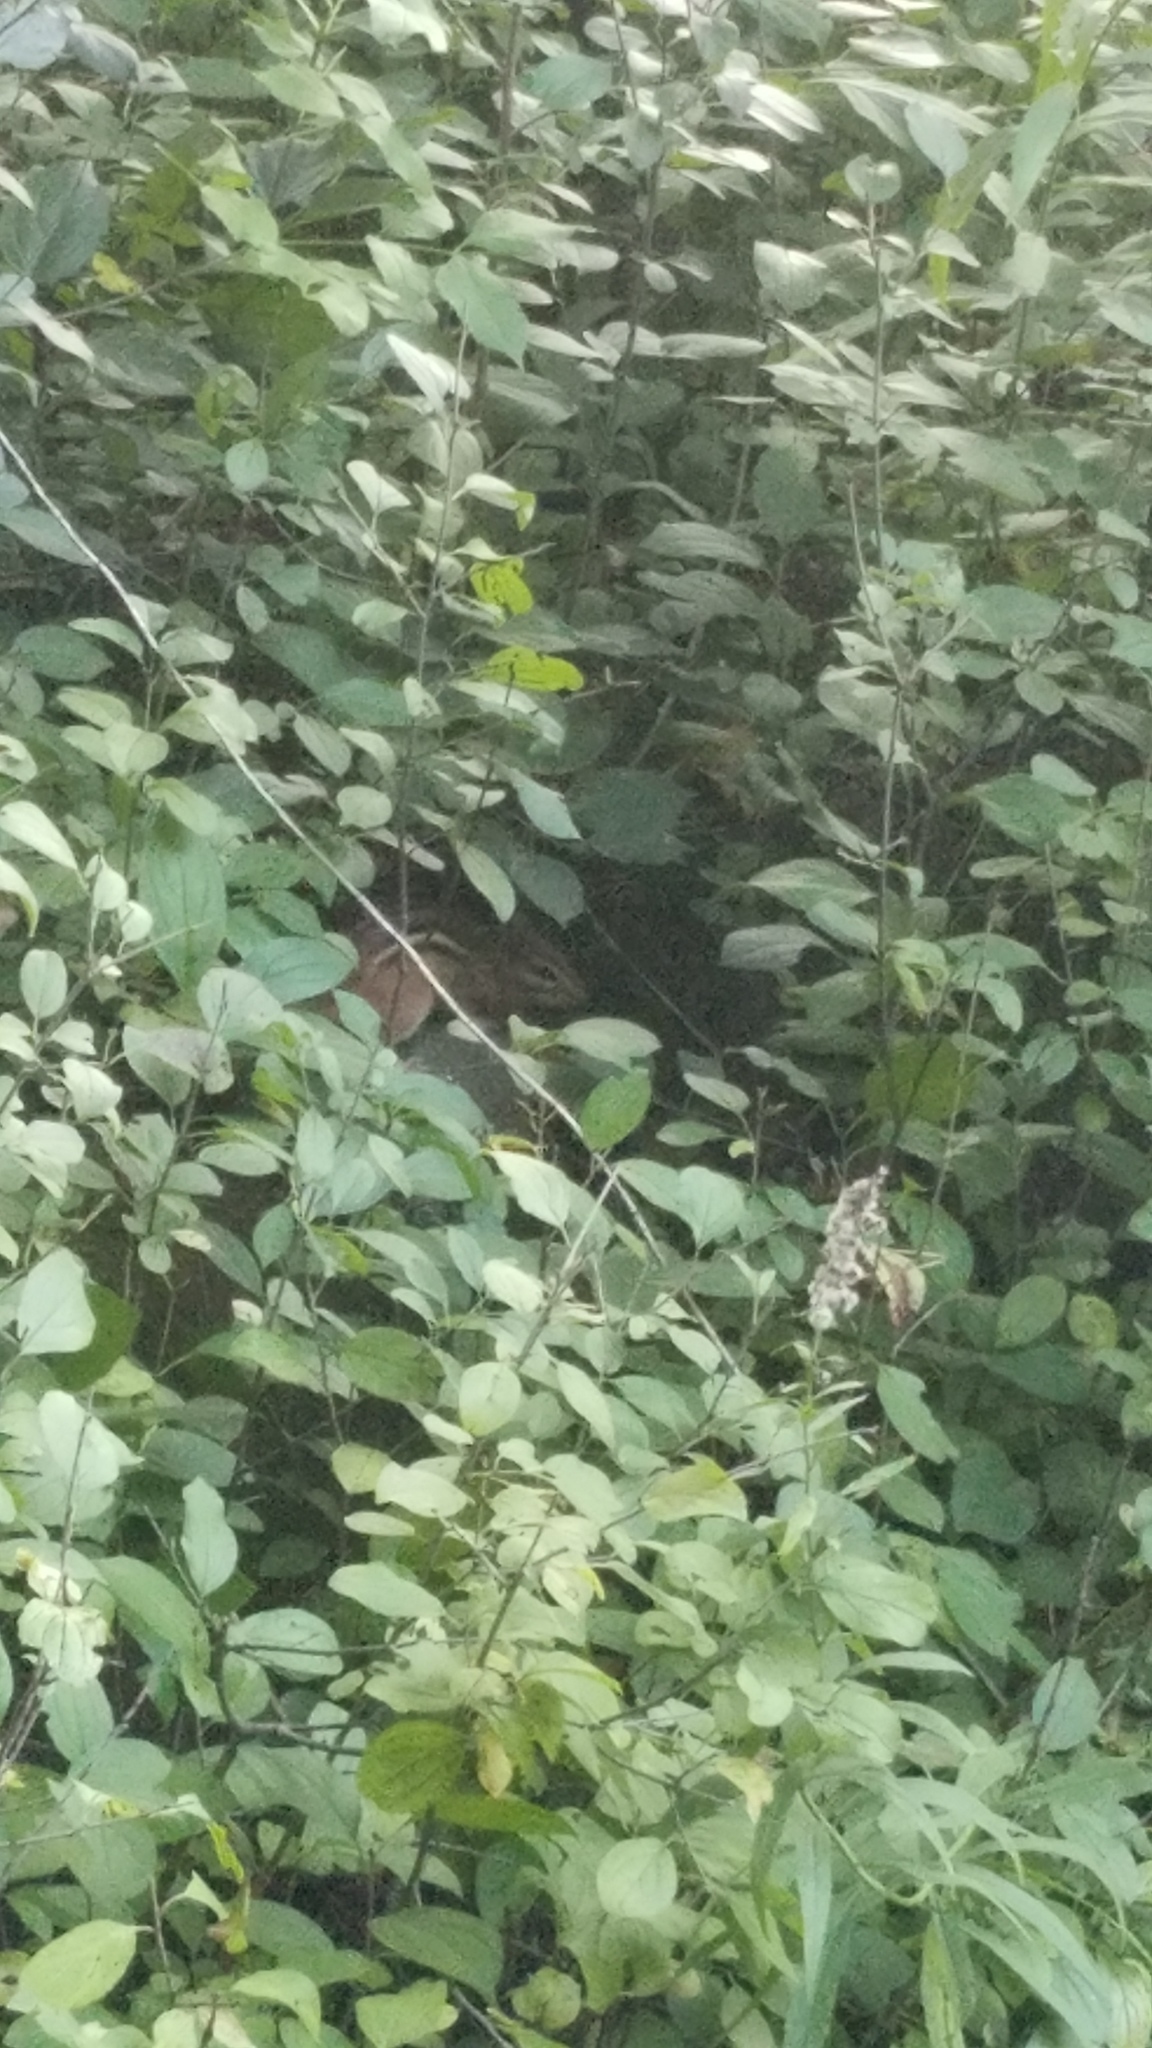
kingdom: Animalia
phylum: Chordata
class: Mammalia
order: Rodentia
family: Sciuridae
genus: Tamias
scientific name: Tamias striatus
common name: Eastern chipmunk
